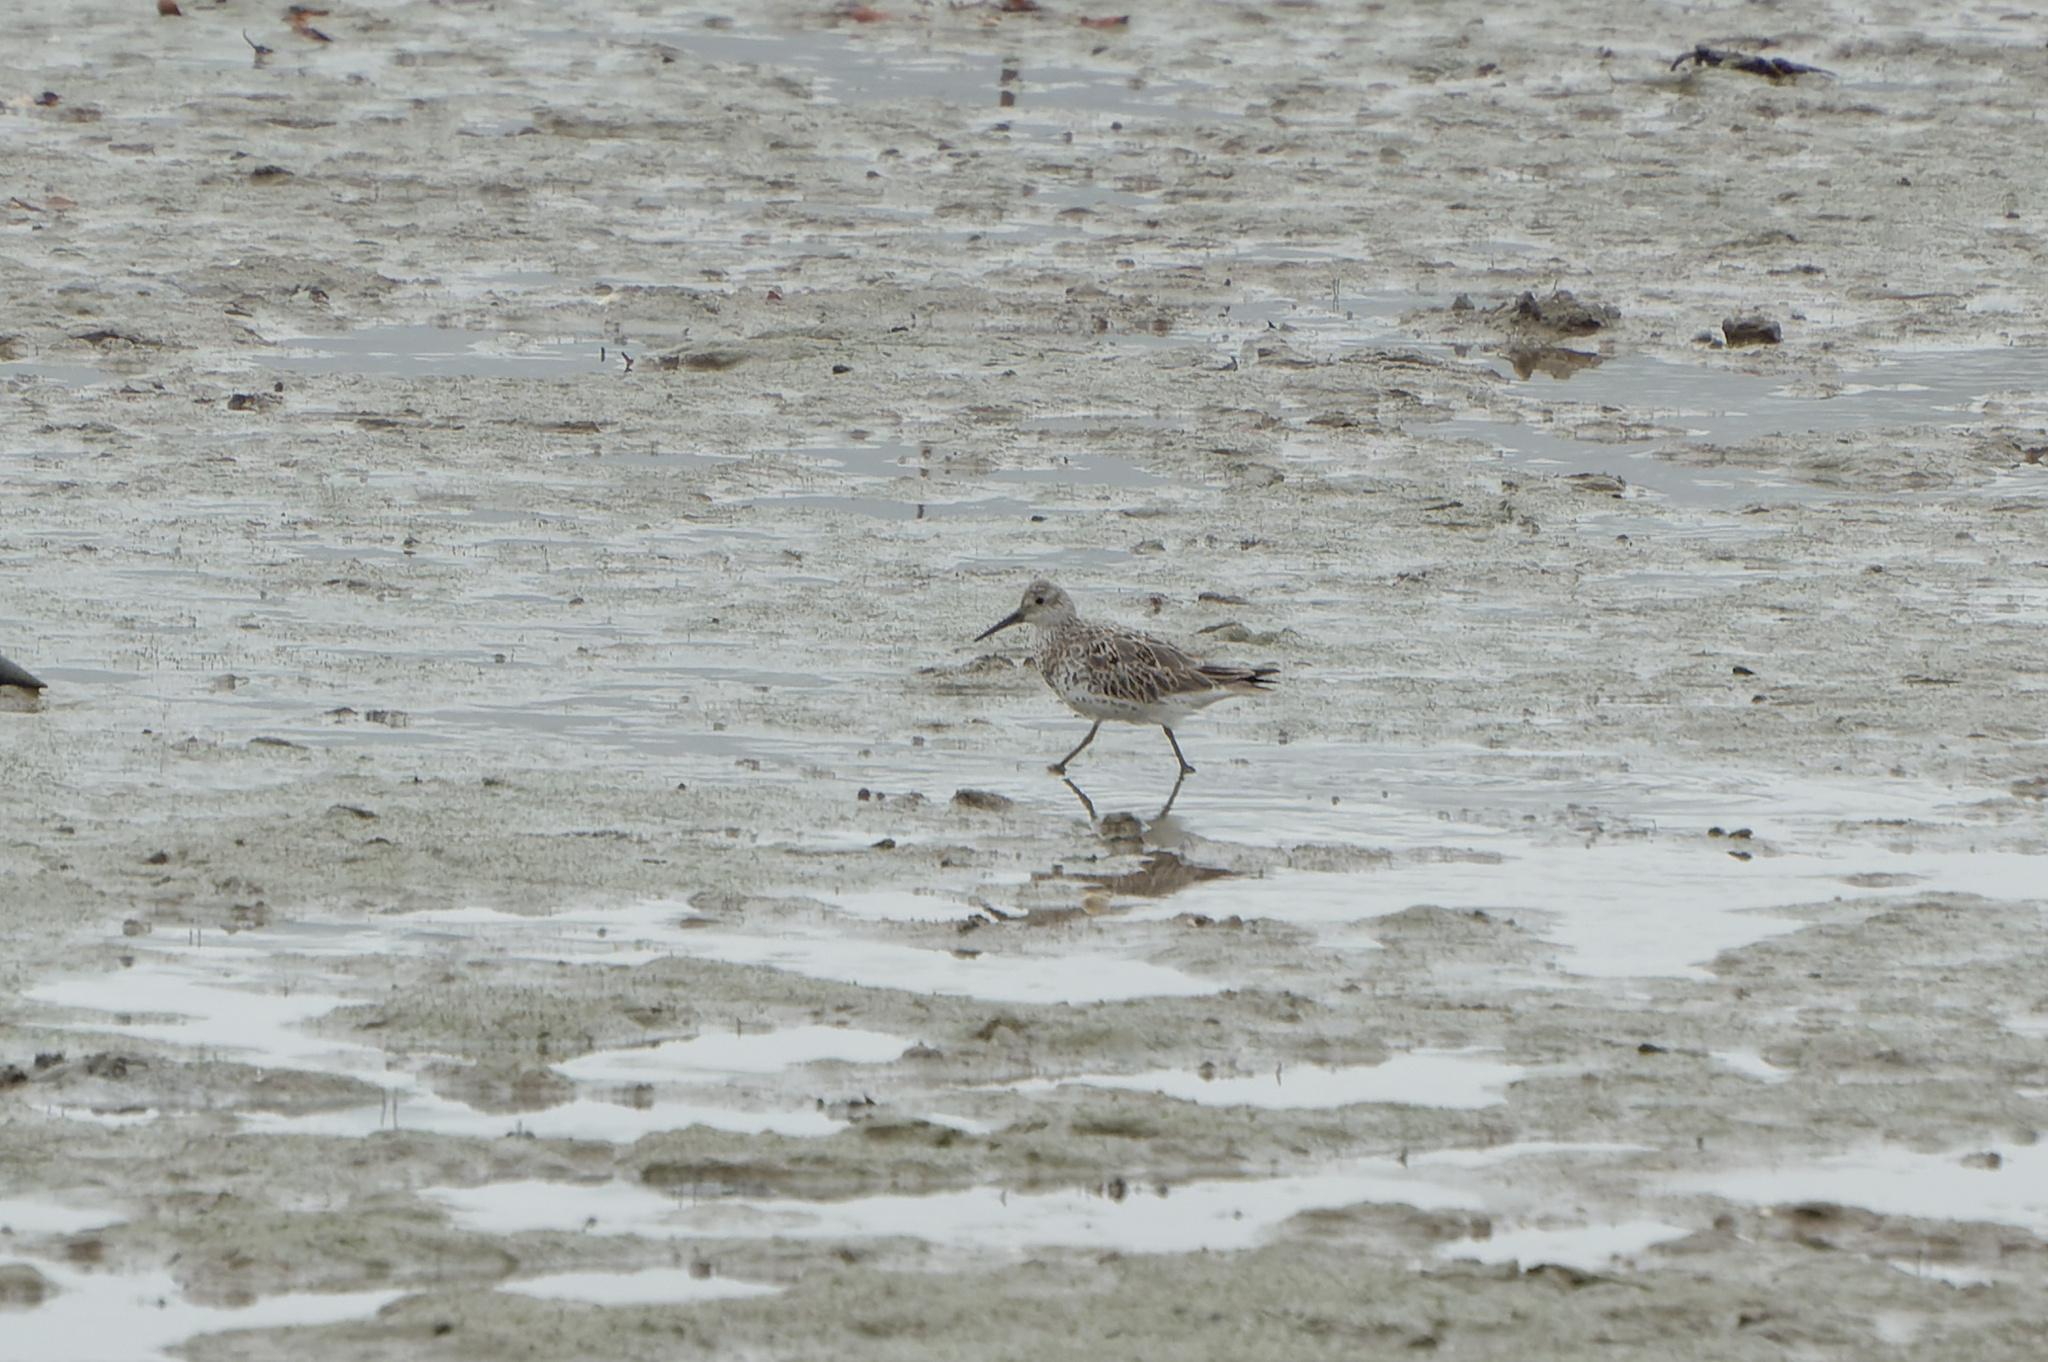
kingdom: Animalia
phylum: Chordata
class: Aves
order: Charadriiformes
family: Scolopacidae
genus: Calidris
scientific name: Calidris tenuirostris
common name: Great knot
